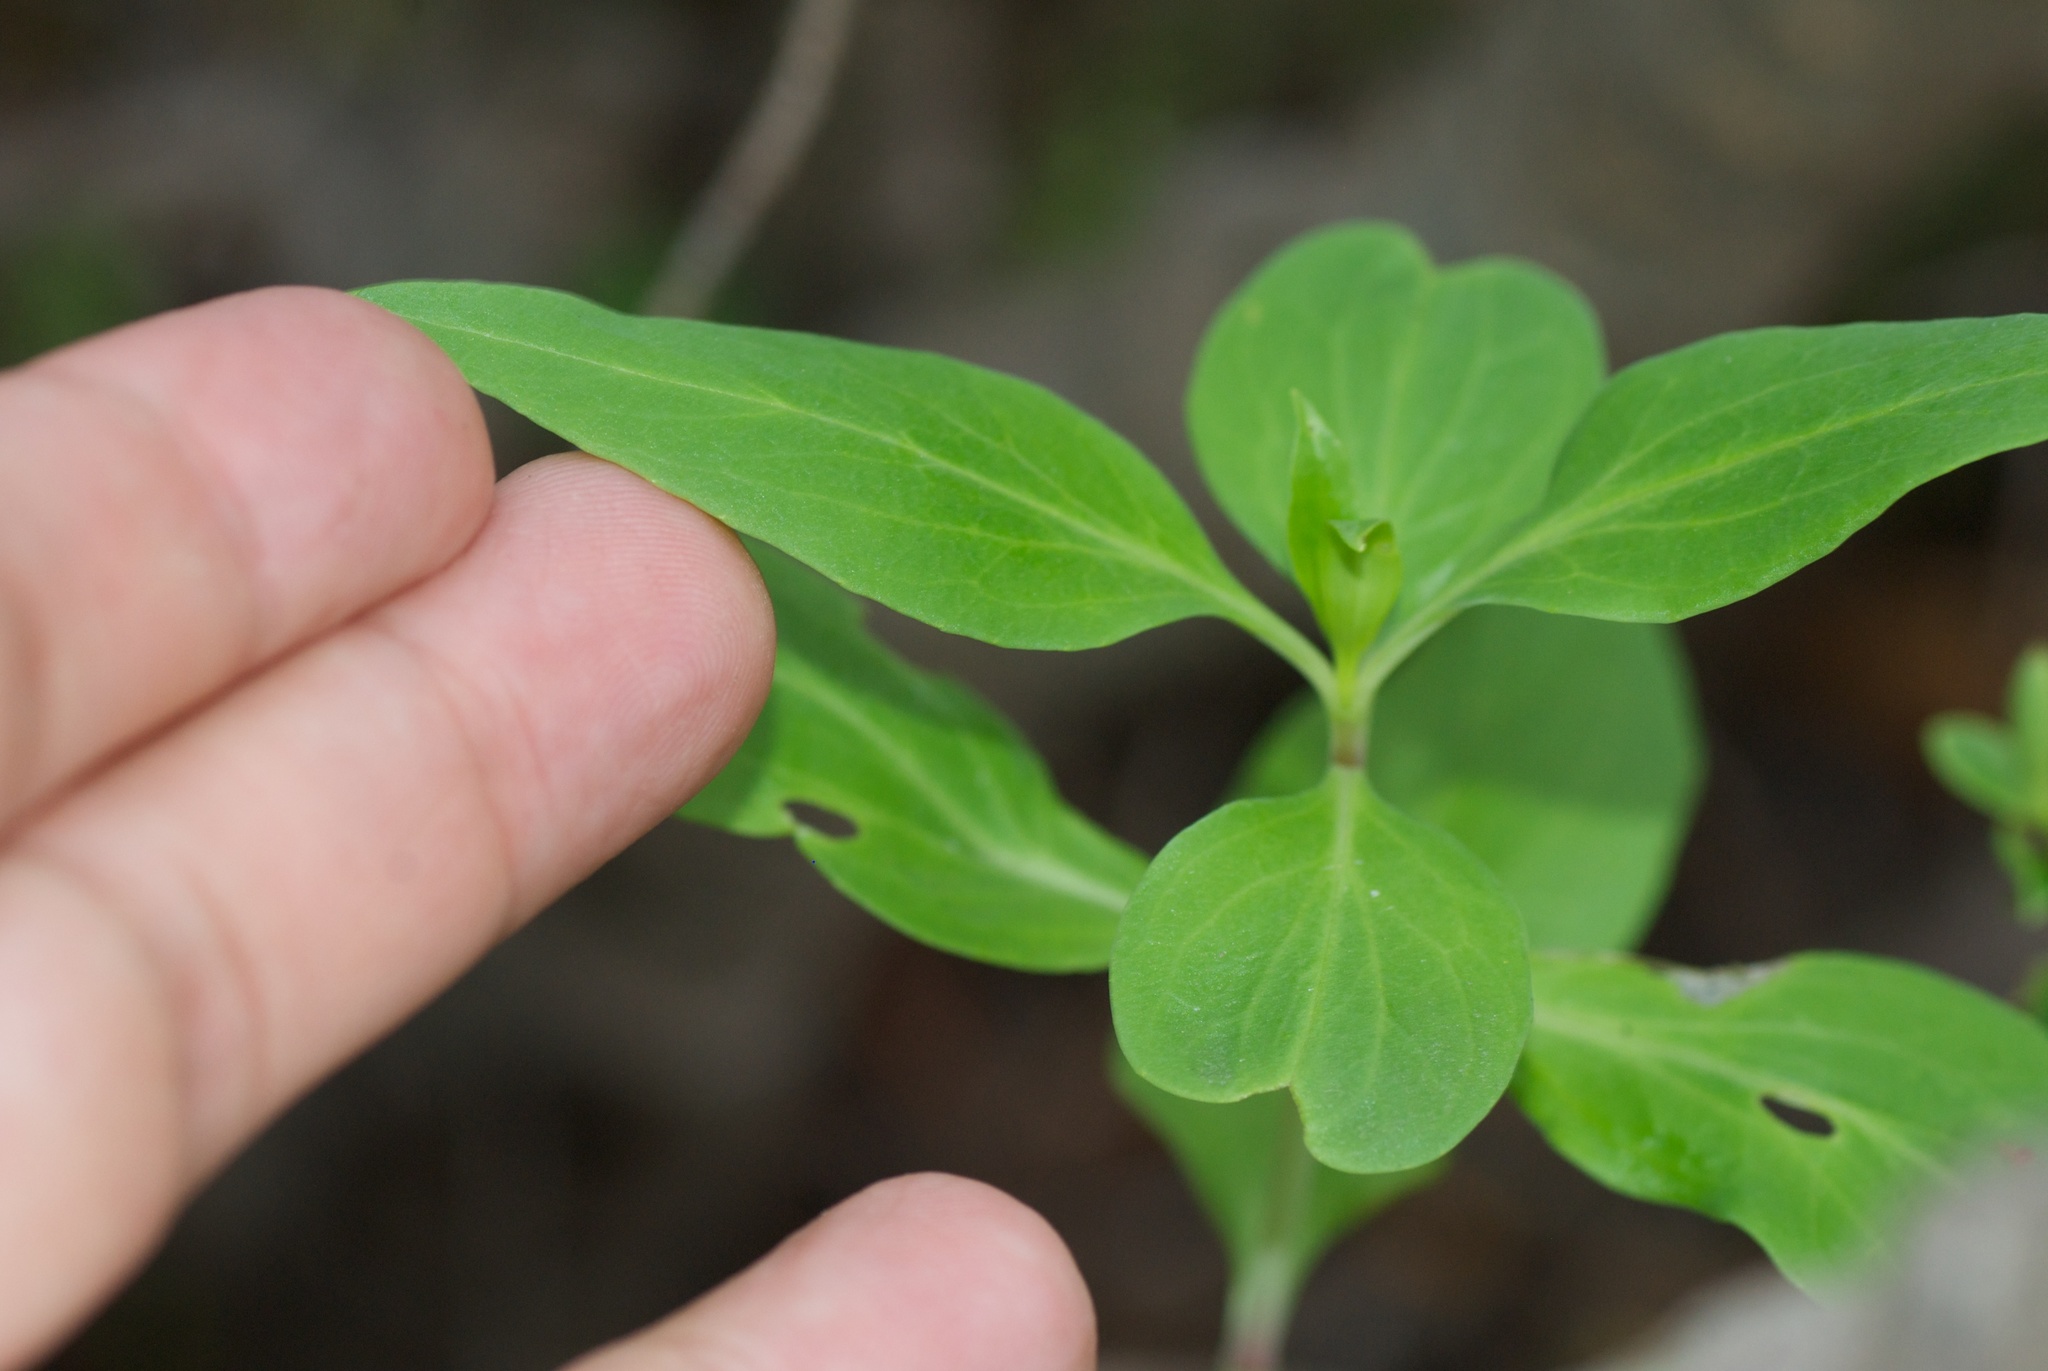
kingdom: Plantae
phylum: Tracheophyta
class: Magnoliopsida
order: Dipsacales
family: Caprifoliaceae
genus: Centranthus
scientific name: Centranthus ruber
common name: Red valerian
